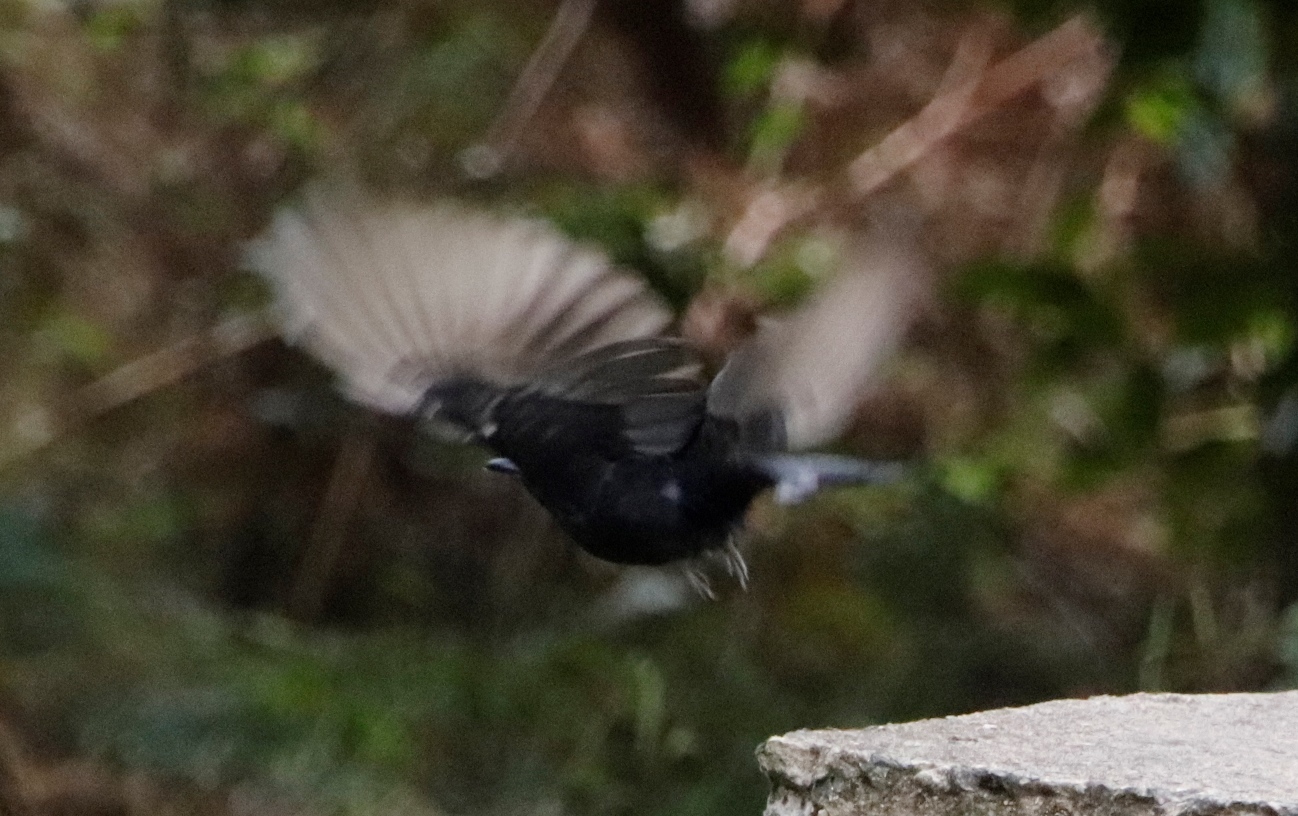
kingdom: Animalia
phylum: Chordata
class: Aves
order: Passeriformes
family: Dicruridae
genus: Dicrurus
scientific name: Dicrurus adsimilis
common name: Fork-tailed drongo
